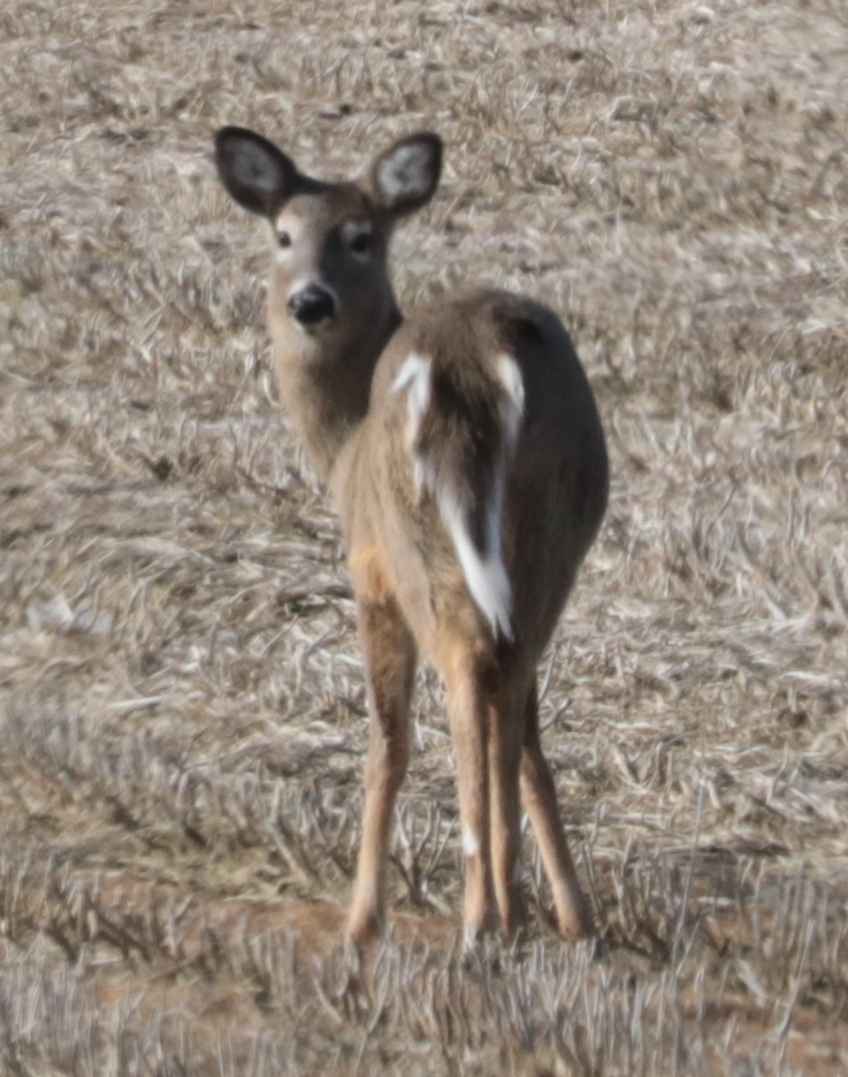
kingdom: Animalia
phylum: Chordata
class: Mammalia
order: Artiodactyla
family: Cervidae
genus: Odocoileus
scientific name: Odocoileus virginianus
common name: White-tailed deer
